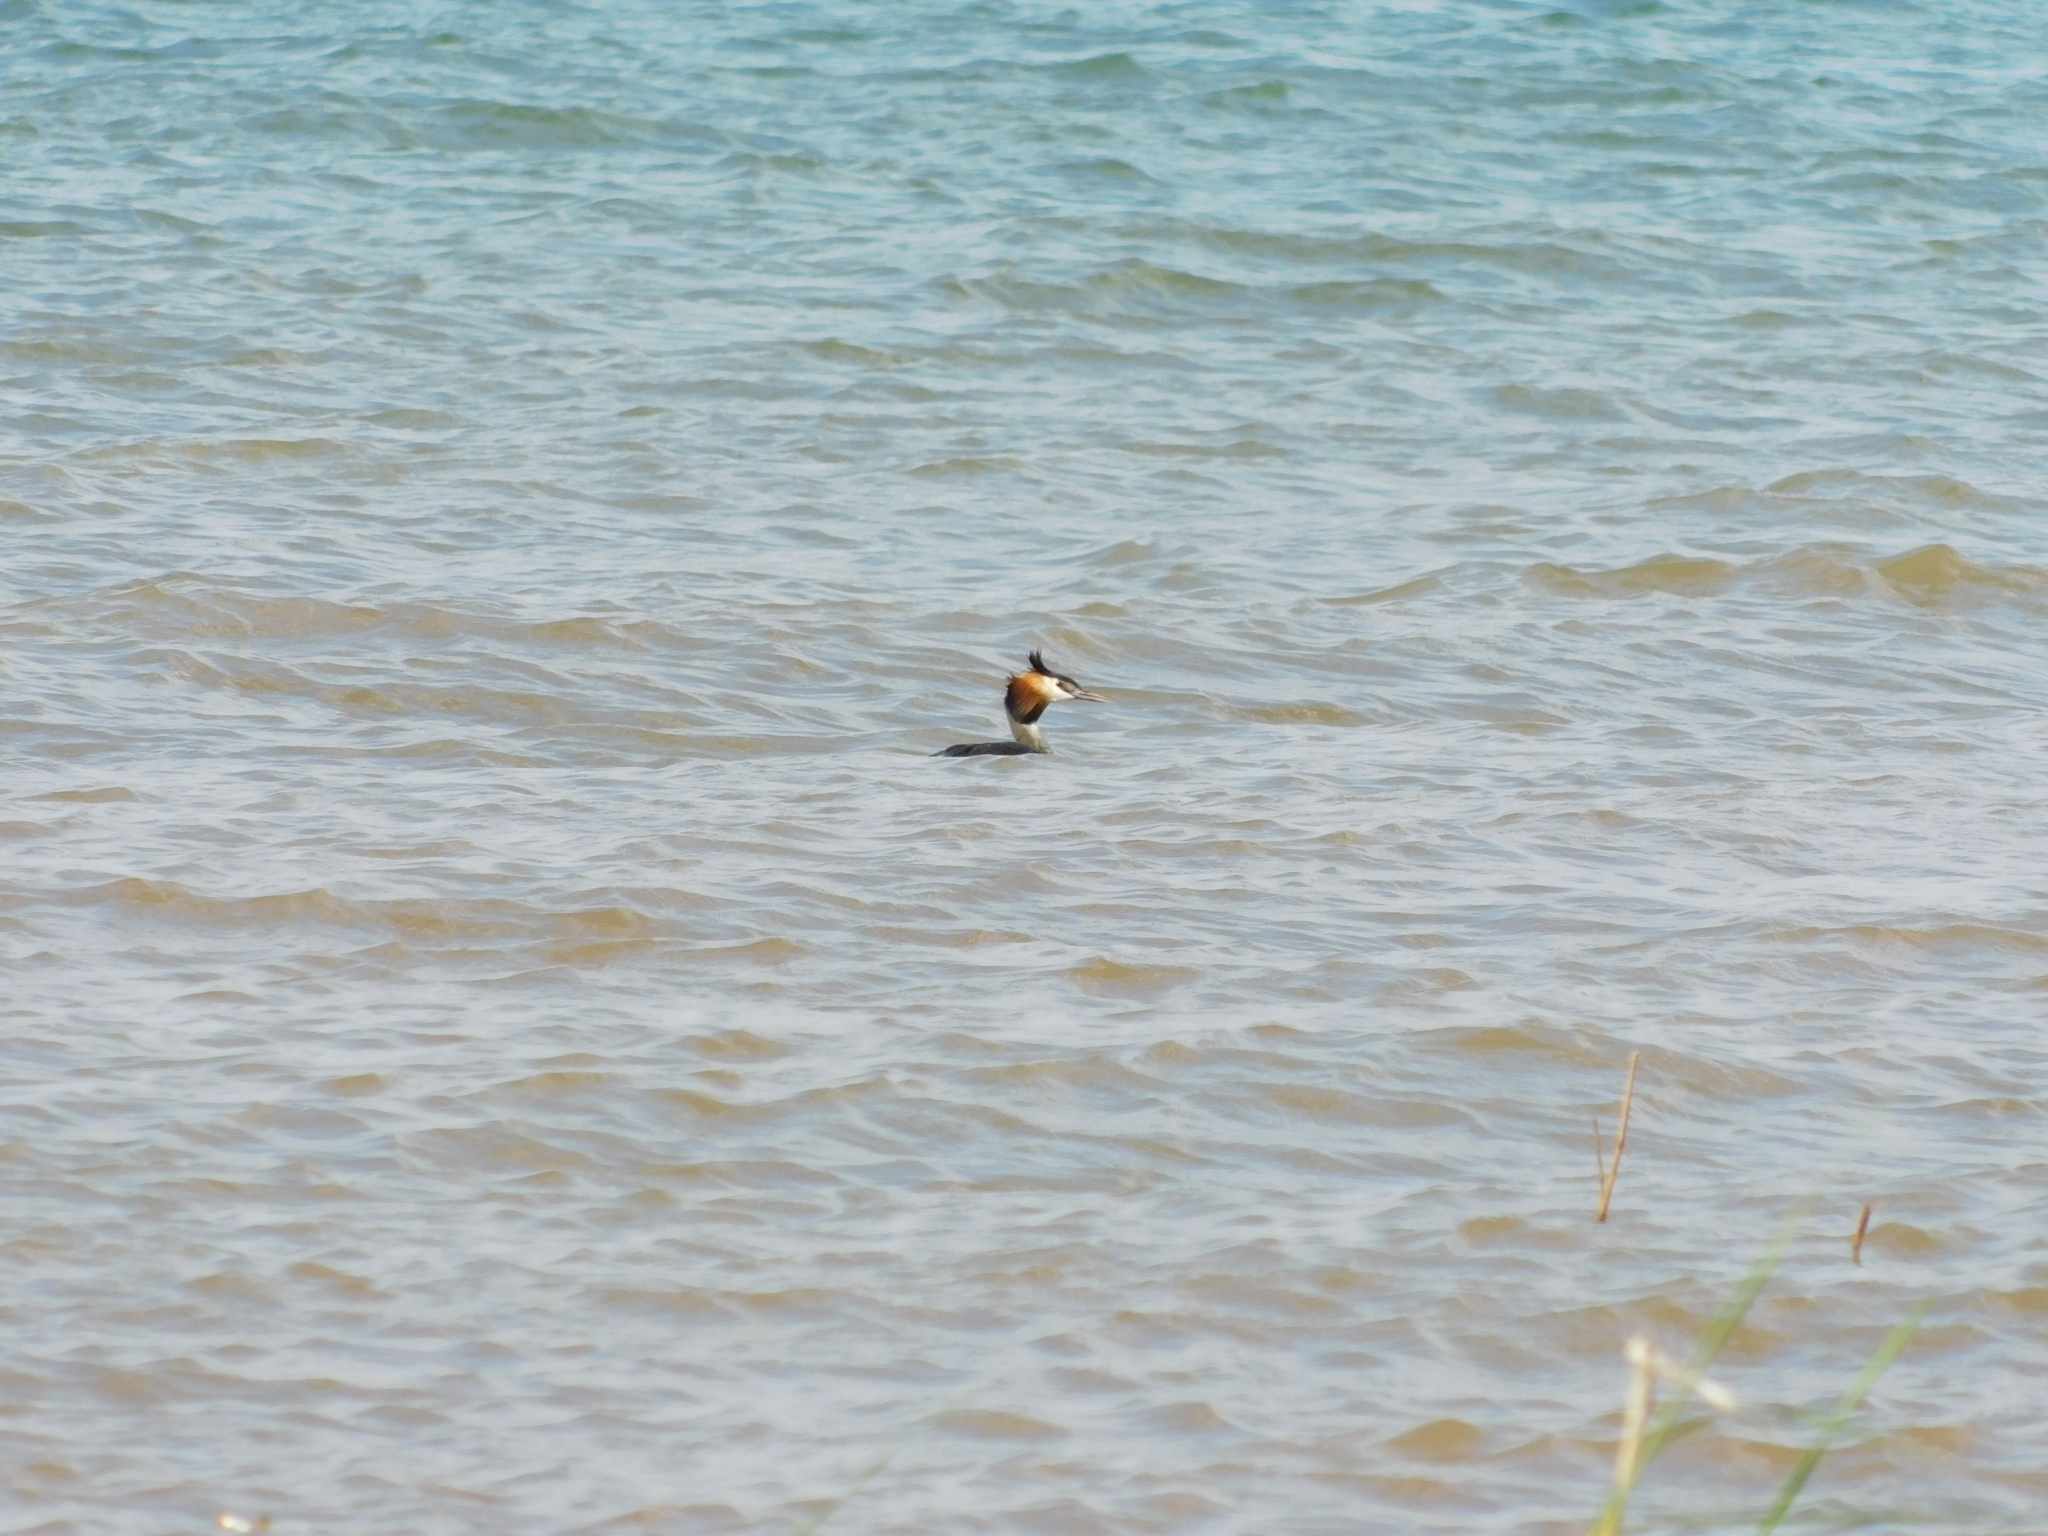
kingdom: Animalia
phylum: Chordata
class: Aves
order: Podicipediformes
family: Podicipedidae
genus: Podiceps
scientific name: Podiceps cristatus
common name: Great crested grebe
